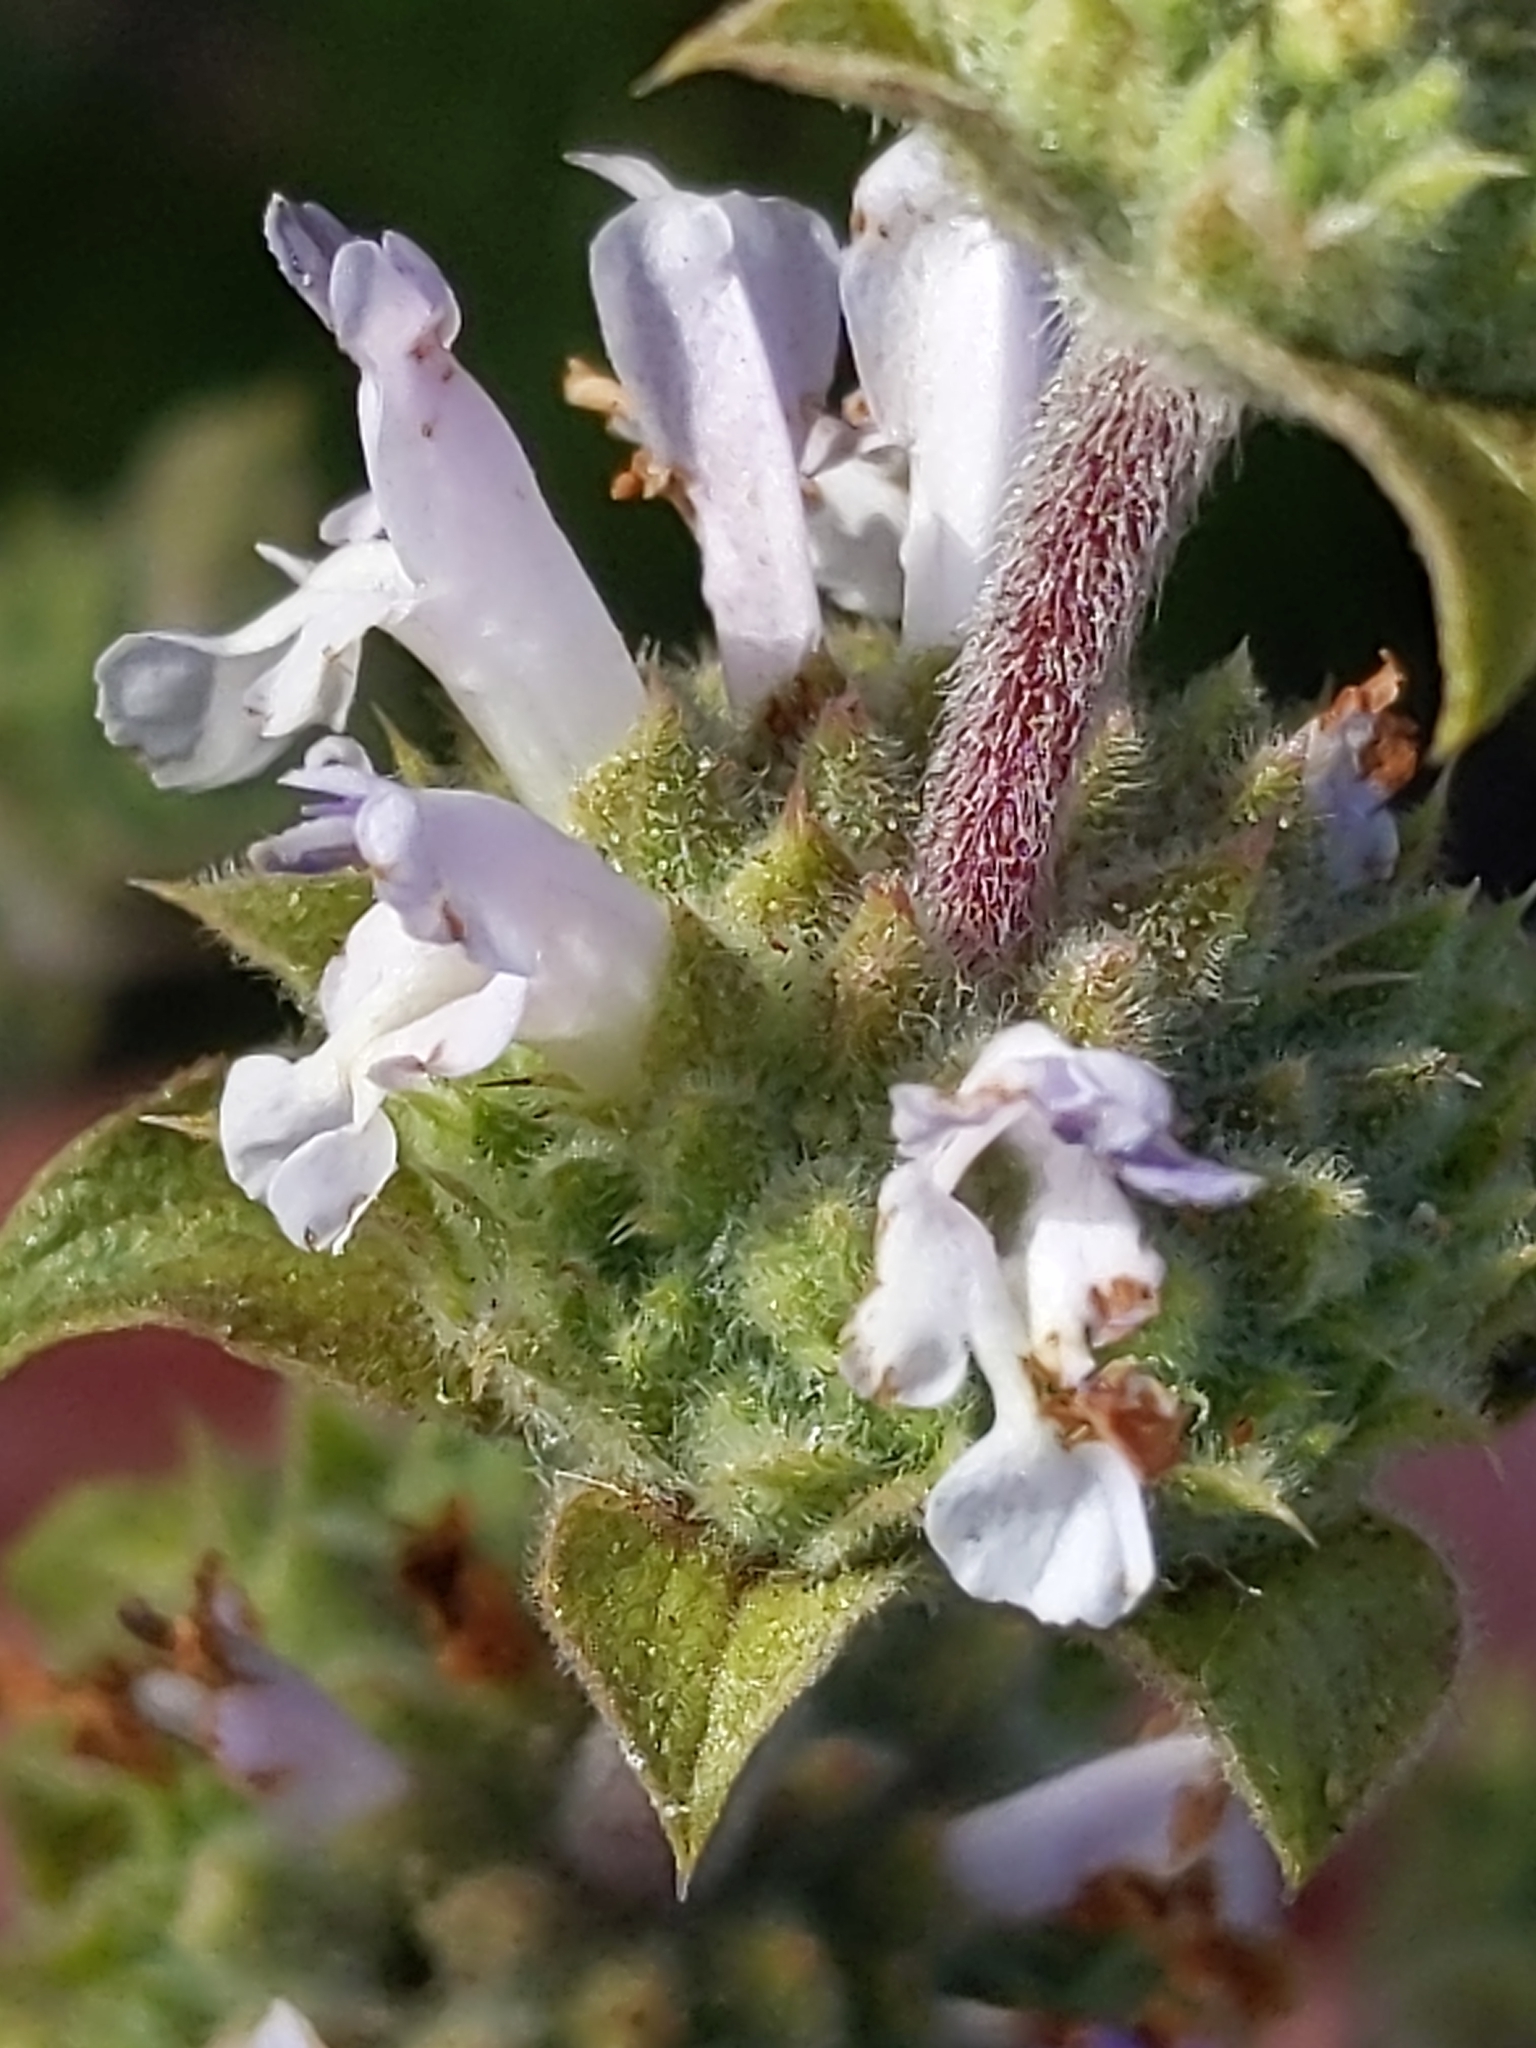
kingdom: Plantae
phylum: Tracheophyta
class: Magnoliopsida
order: Lamiales
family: Lamiaceae
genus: Salvia
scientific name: Salvia mellifera
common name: Black sage
